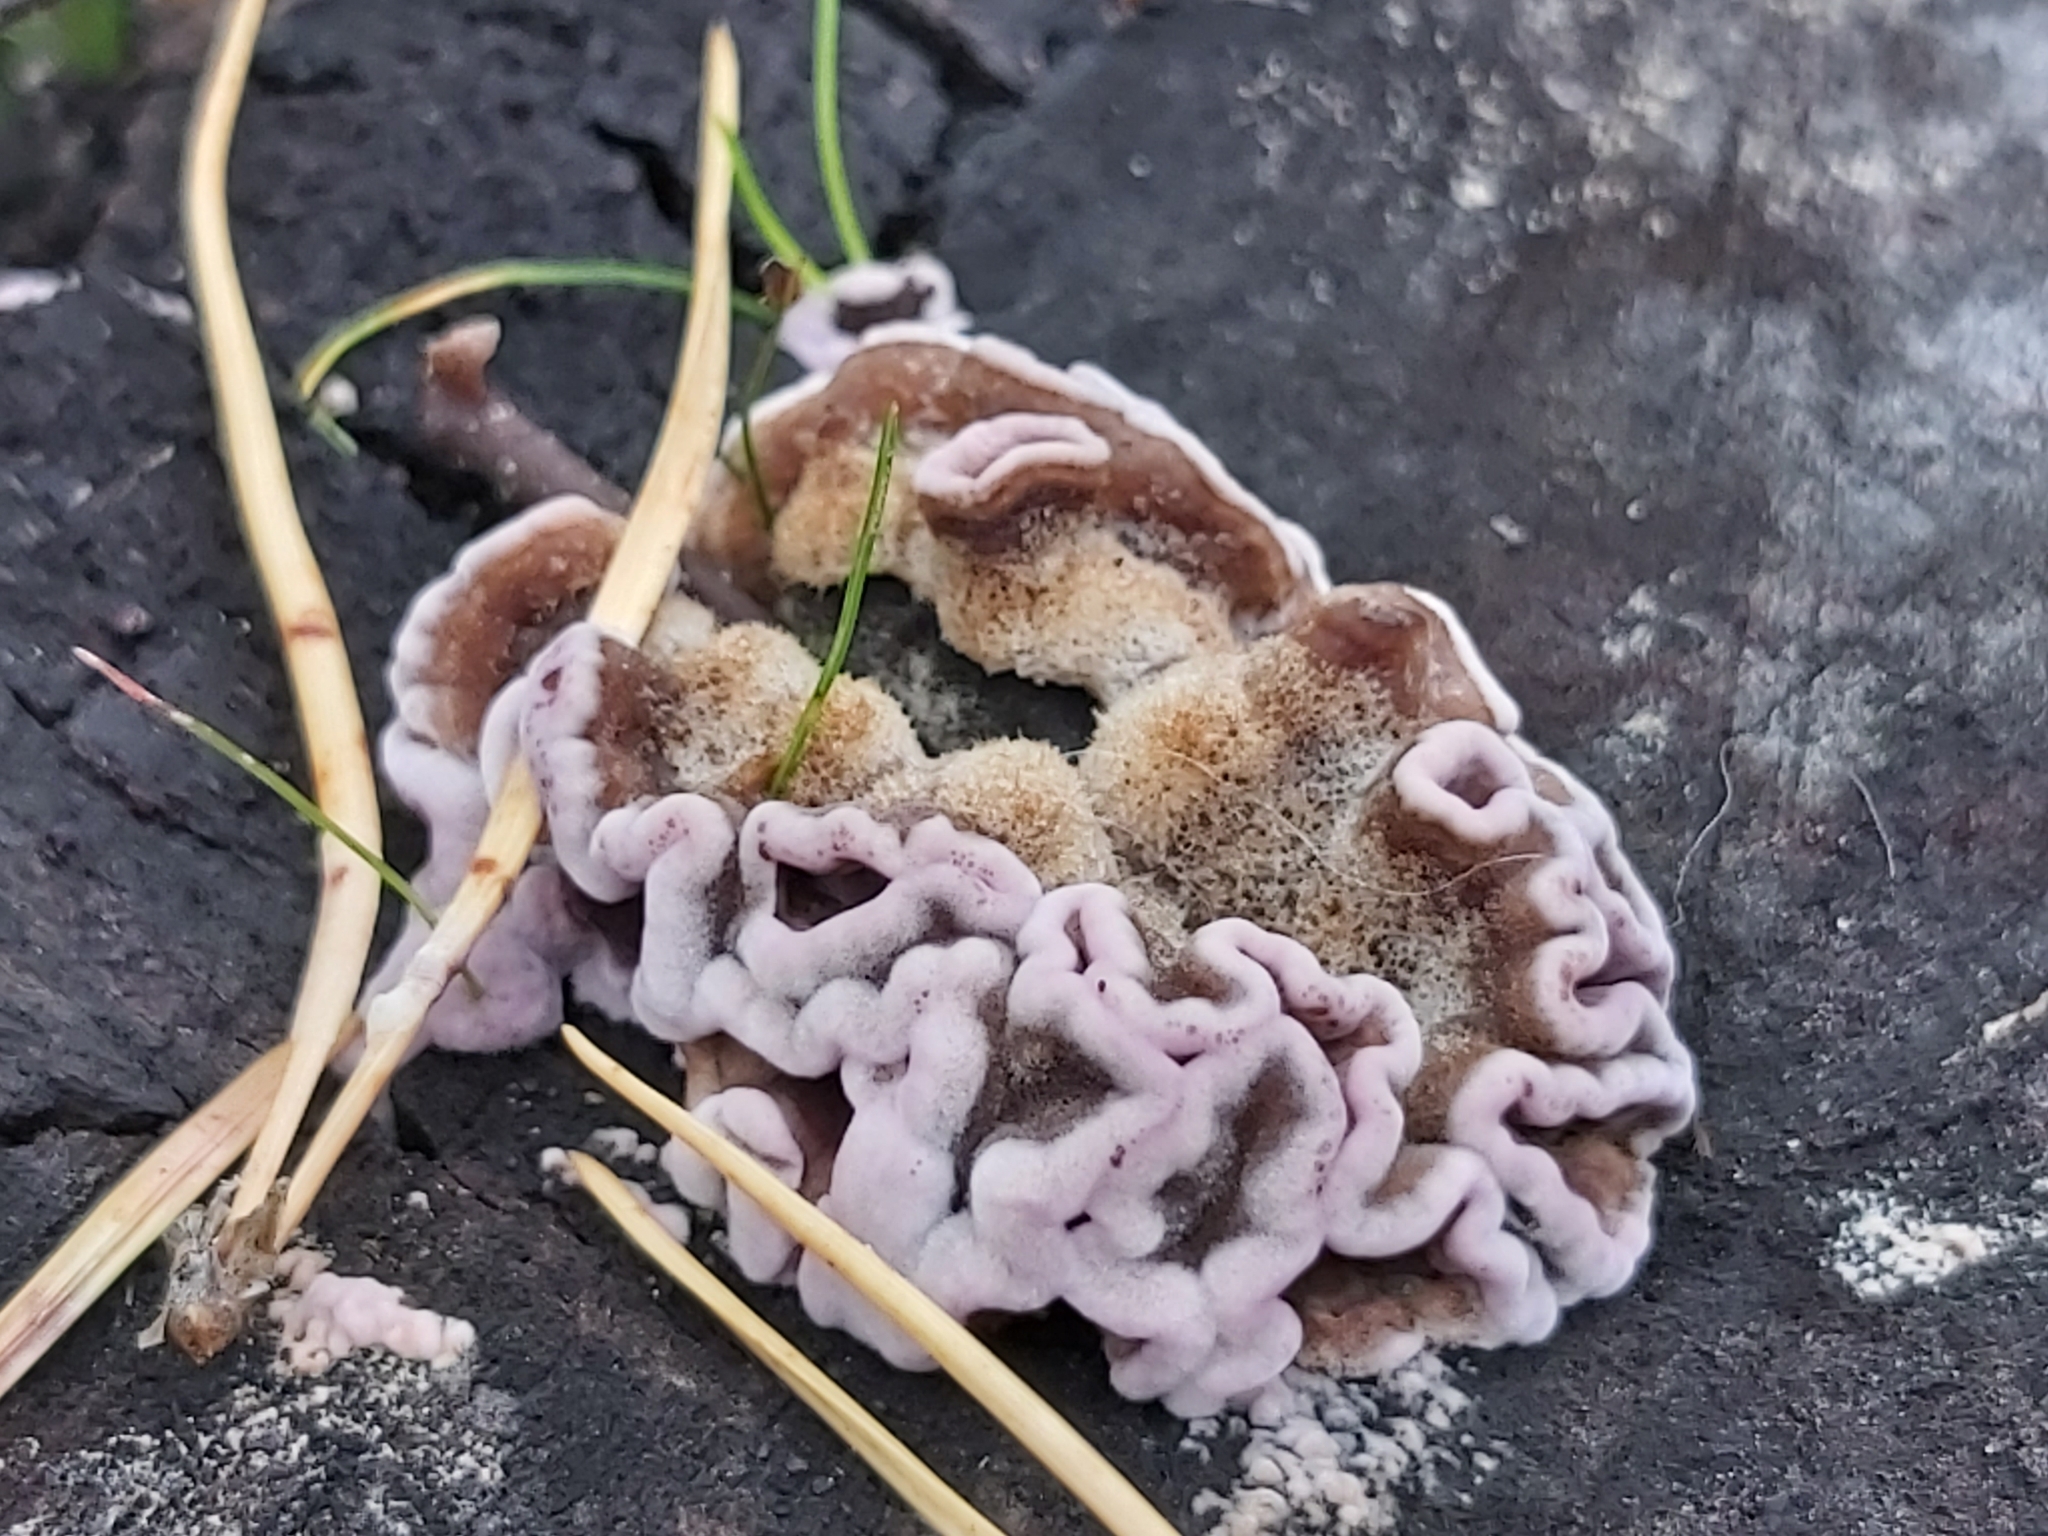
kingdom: Fungi
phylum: Basidiomycota
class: Agaricomycetes
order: Agaricales
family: Cyphellaceae
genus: Chondrostereum
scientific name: Chondrostereum purpureum
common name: Silver leaf disease
